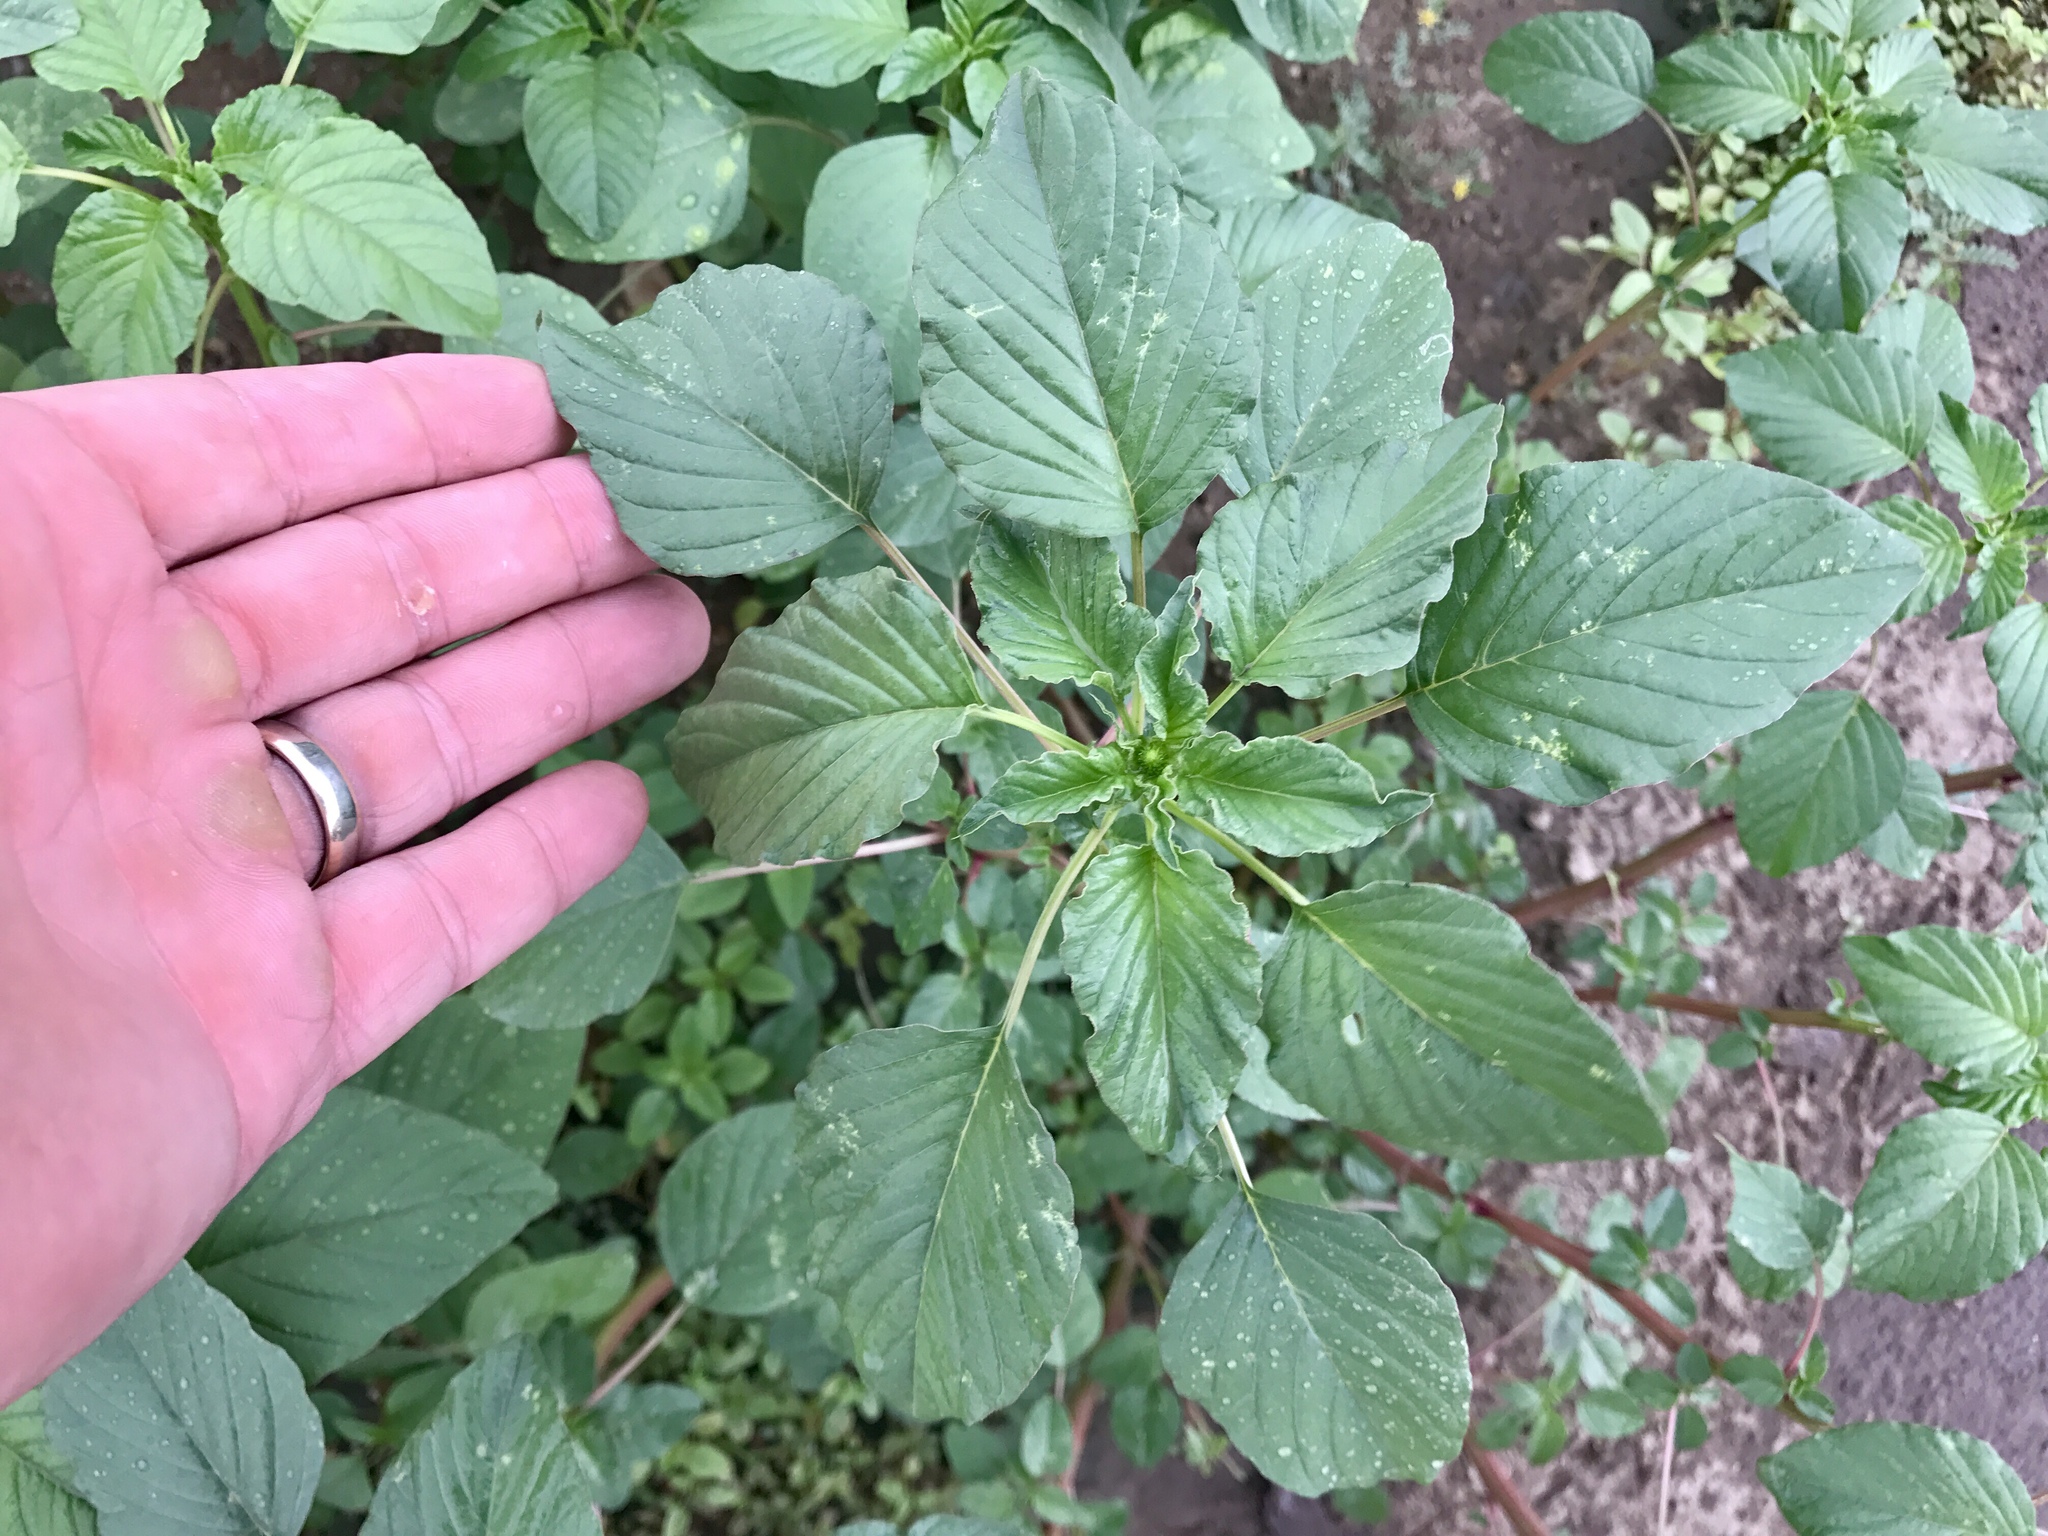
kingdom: Plantae
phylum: Tracheophyta
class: Magnoliopsida
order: Caryophyllales
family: Amaranthaceae
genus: Amaranthus
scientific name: Amaranthus palmeri
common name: Dioecious amaranth
